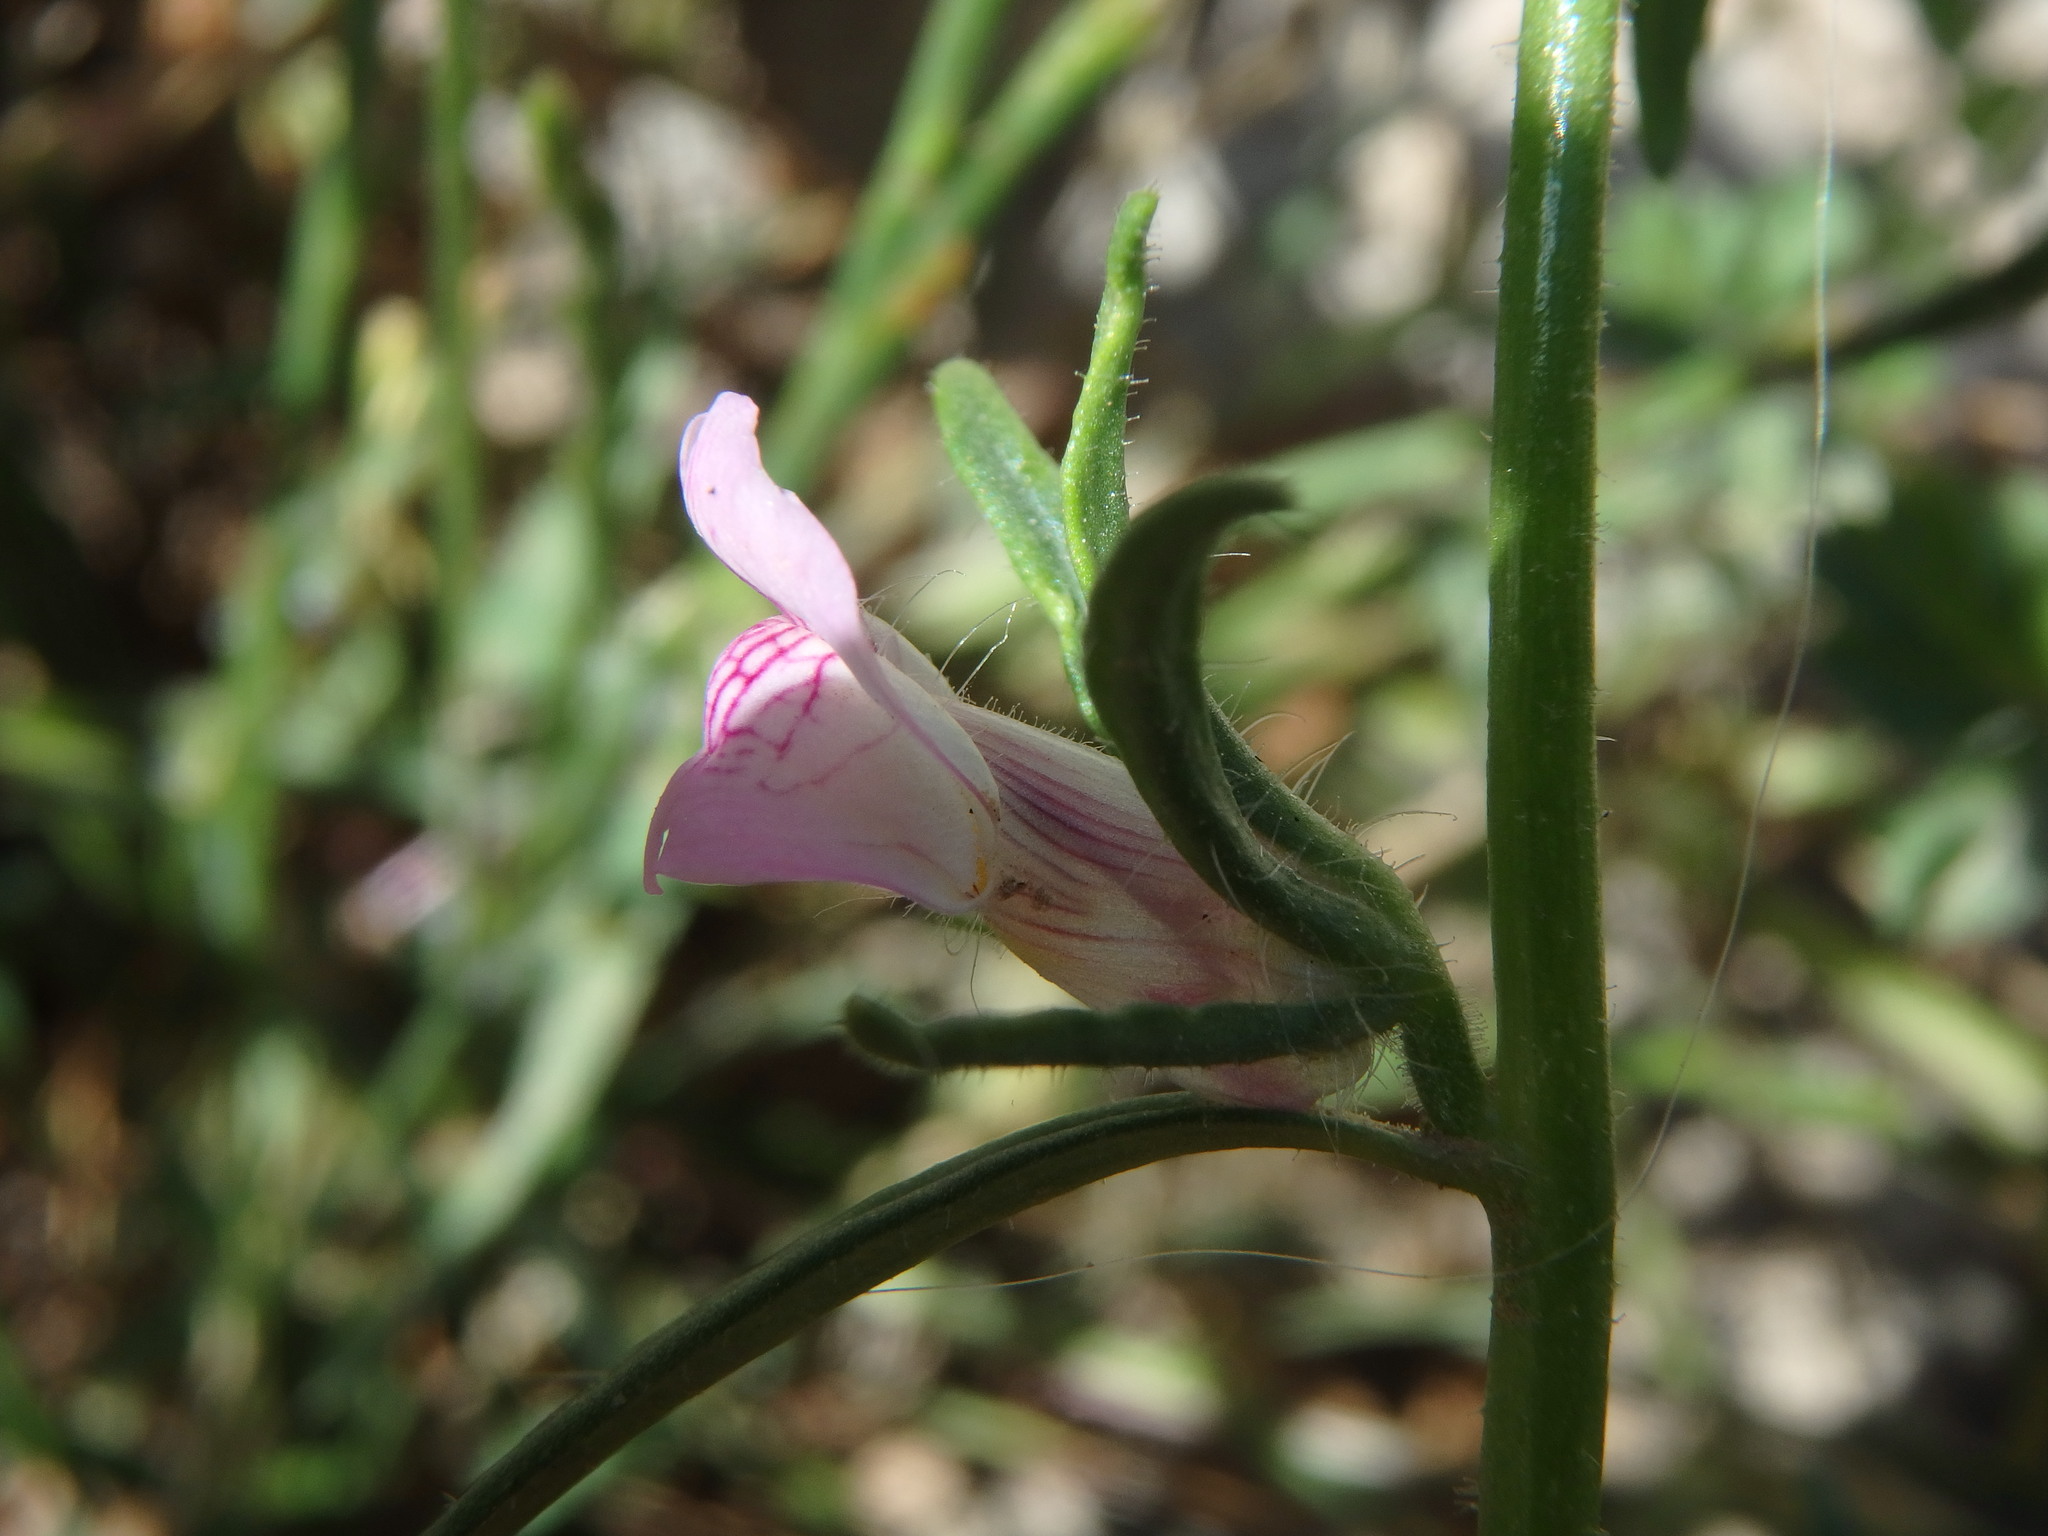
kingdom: Plantae
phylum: Tracheophyta
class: Magnoliopsida
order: Lamiales
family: Plantaginaceae
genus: Misopates
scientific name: Misopates orontium
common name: Weasel's-snout
